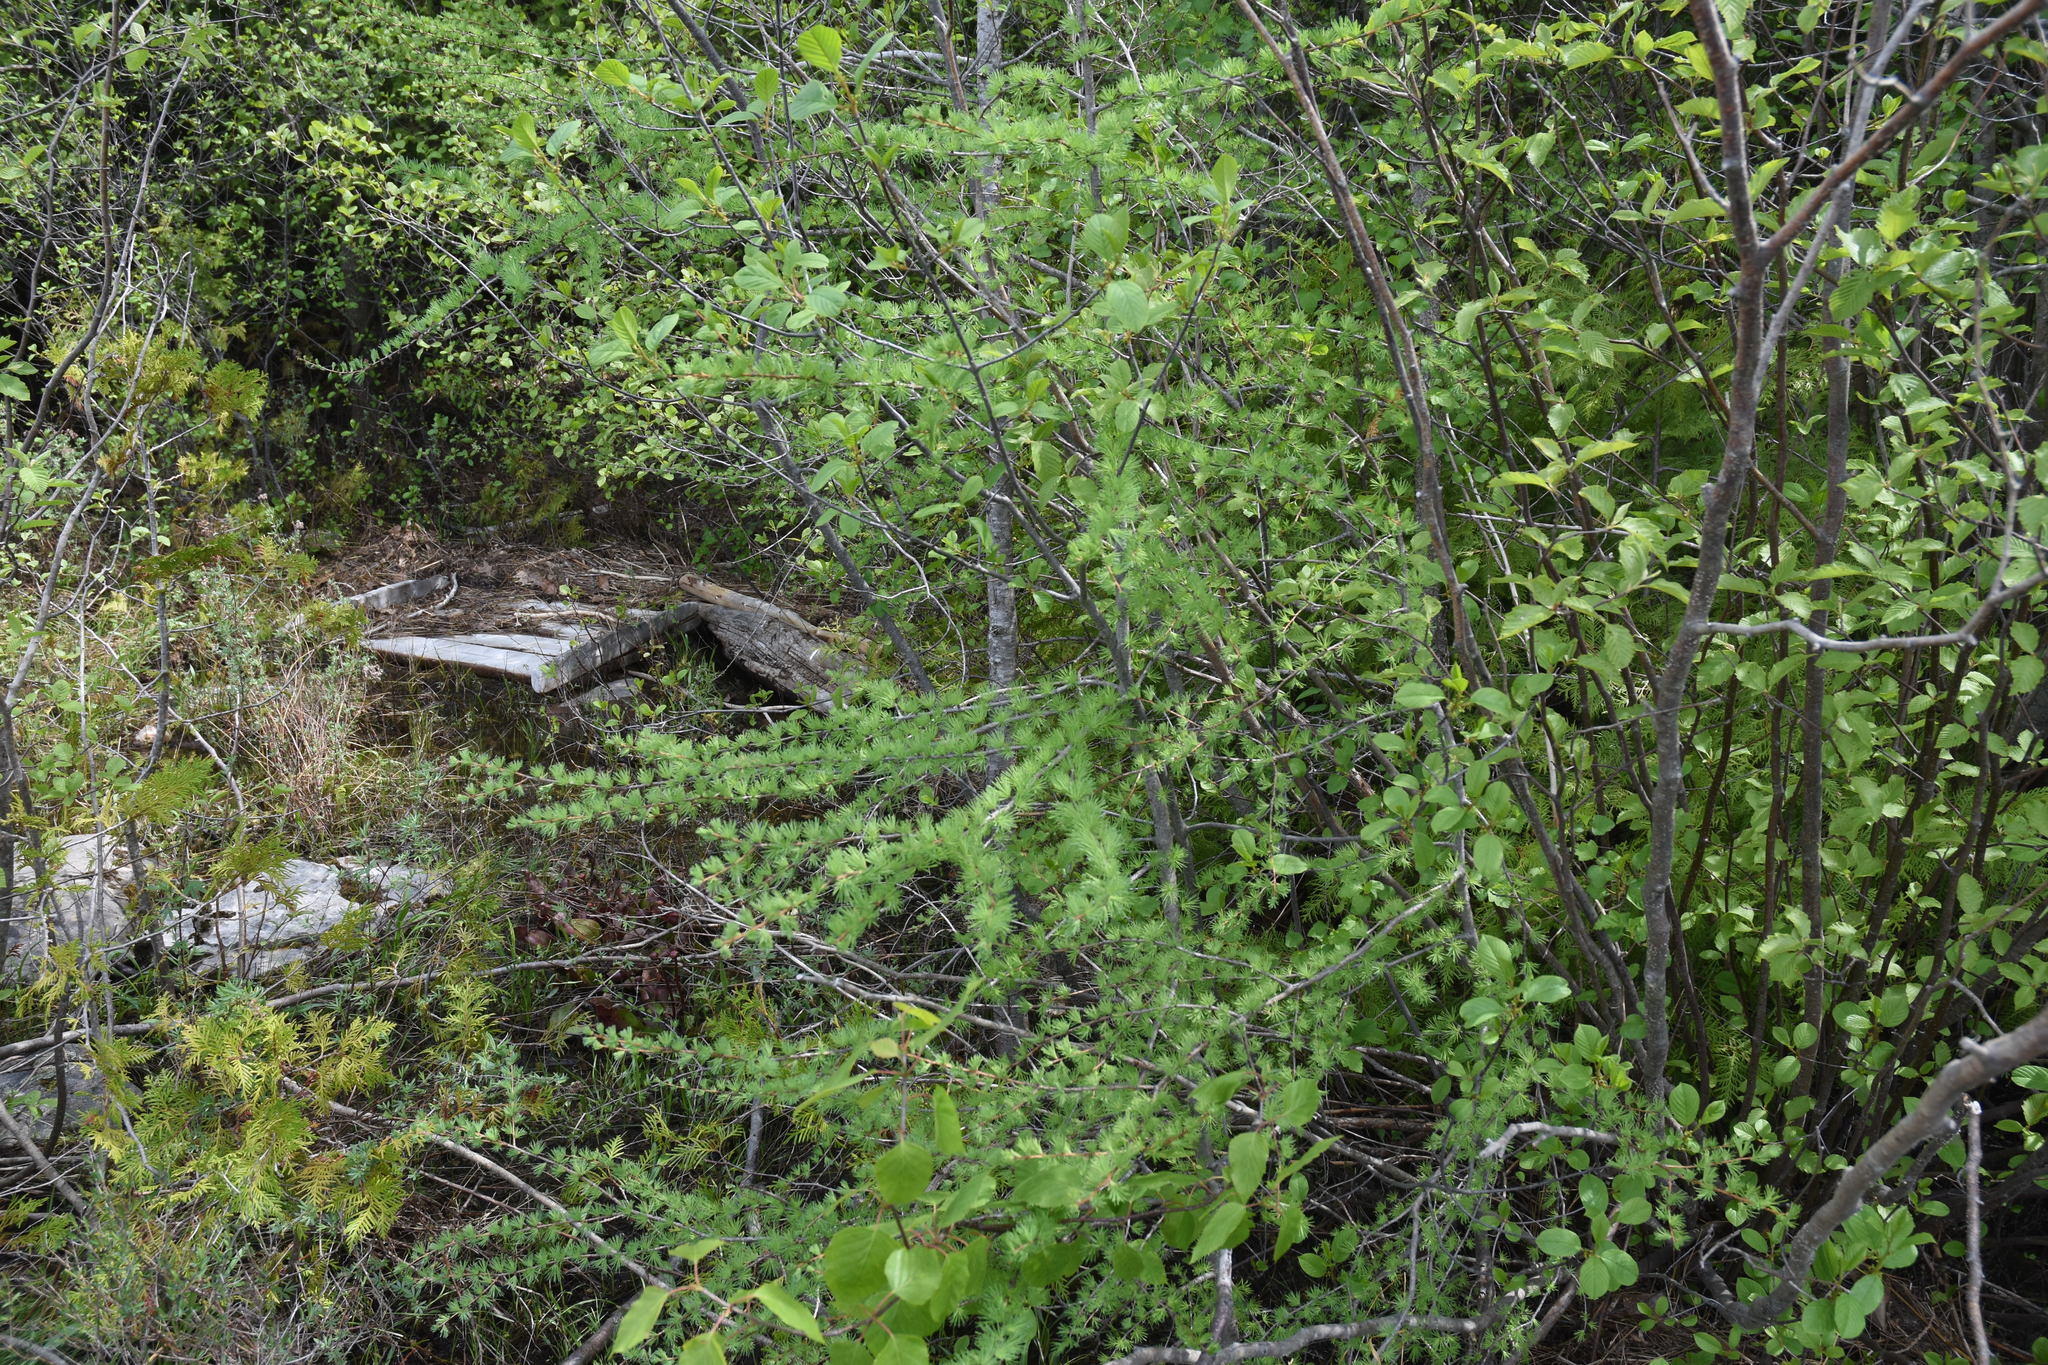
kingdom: Plantae
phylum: Tracheophyta
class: Pinopsida
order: Pinales
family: Pinaceae
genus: Larix
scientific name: Larix laricina
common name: American larch
